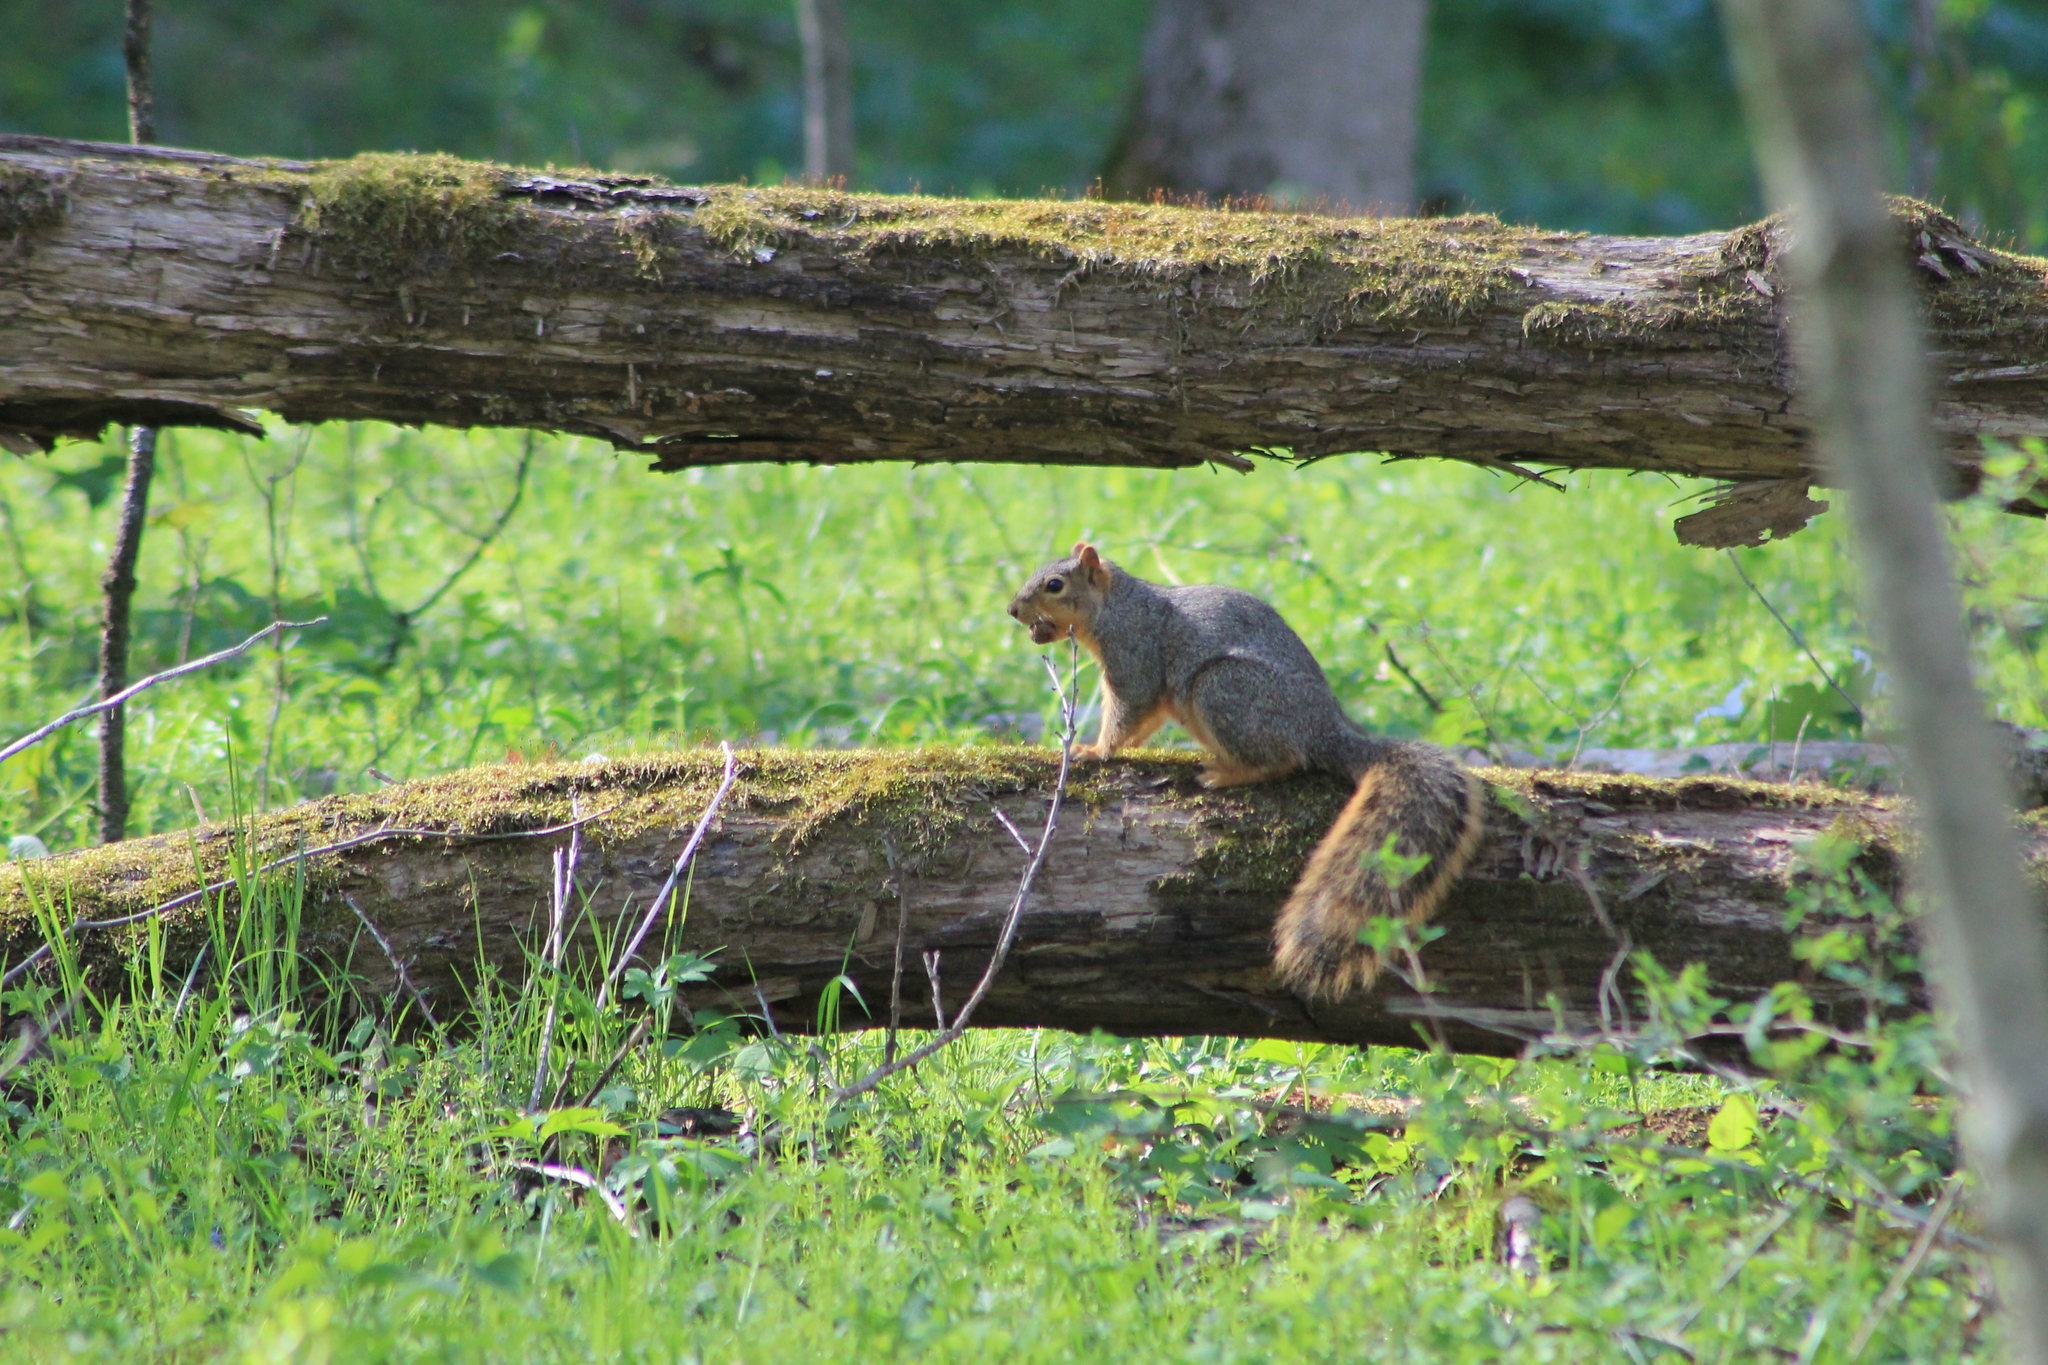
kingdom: Animalia
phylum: Chordata
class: Mammalia
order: Rodentia
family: Sciuridae
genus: Sciurus
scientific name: Sciurus niger
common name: Fox squirrel
